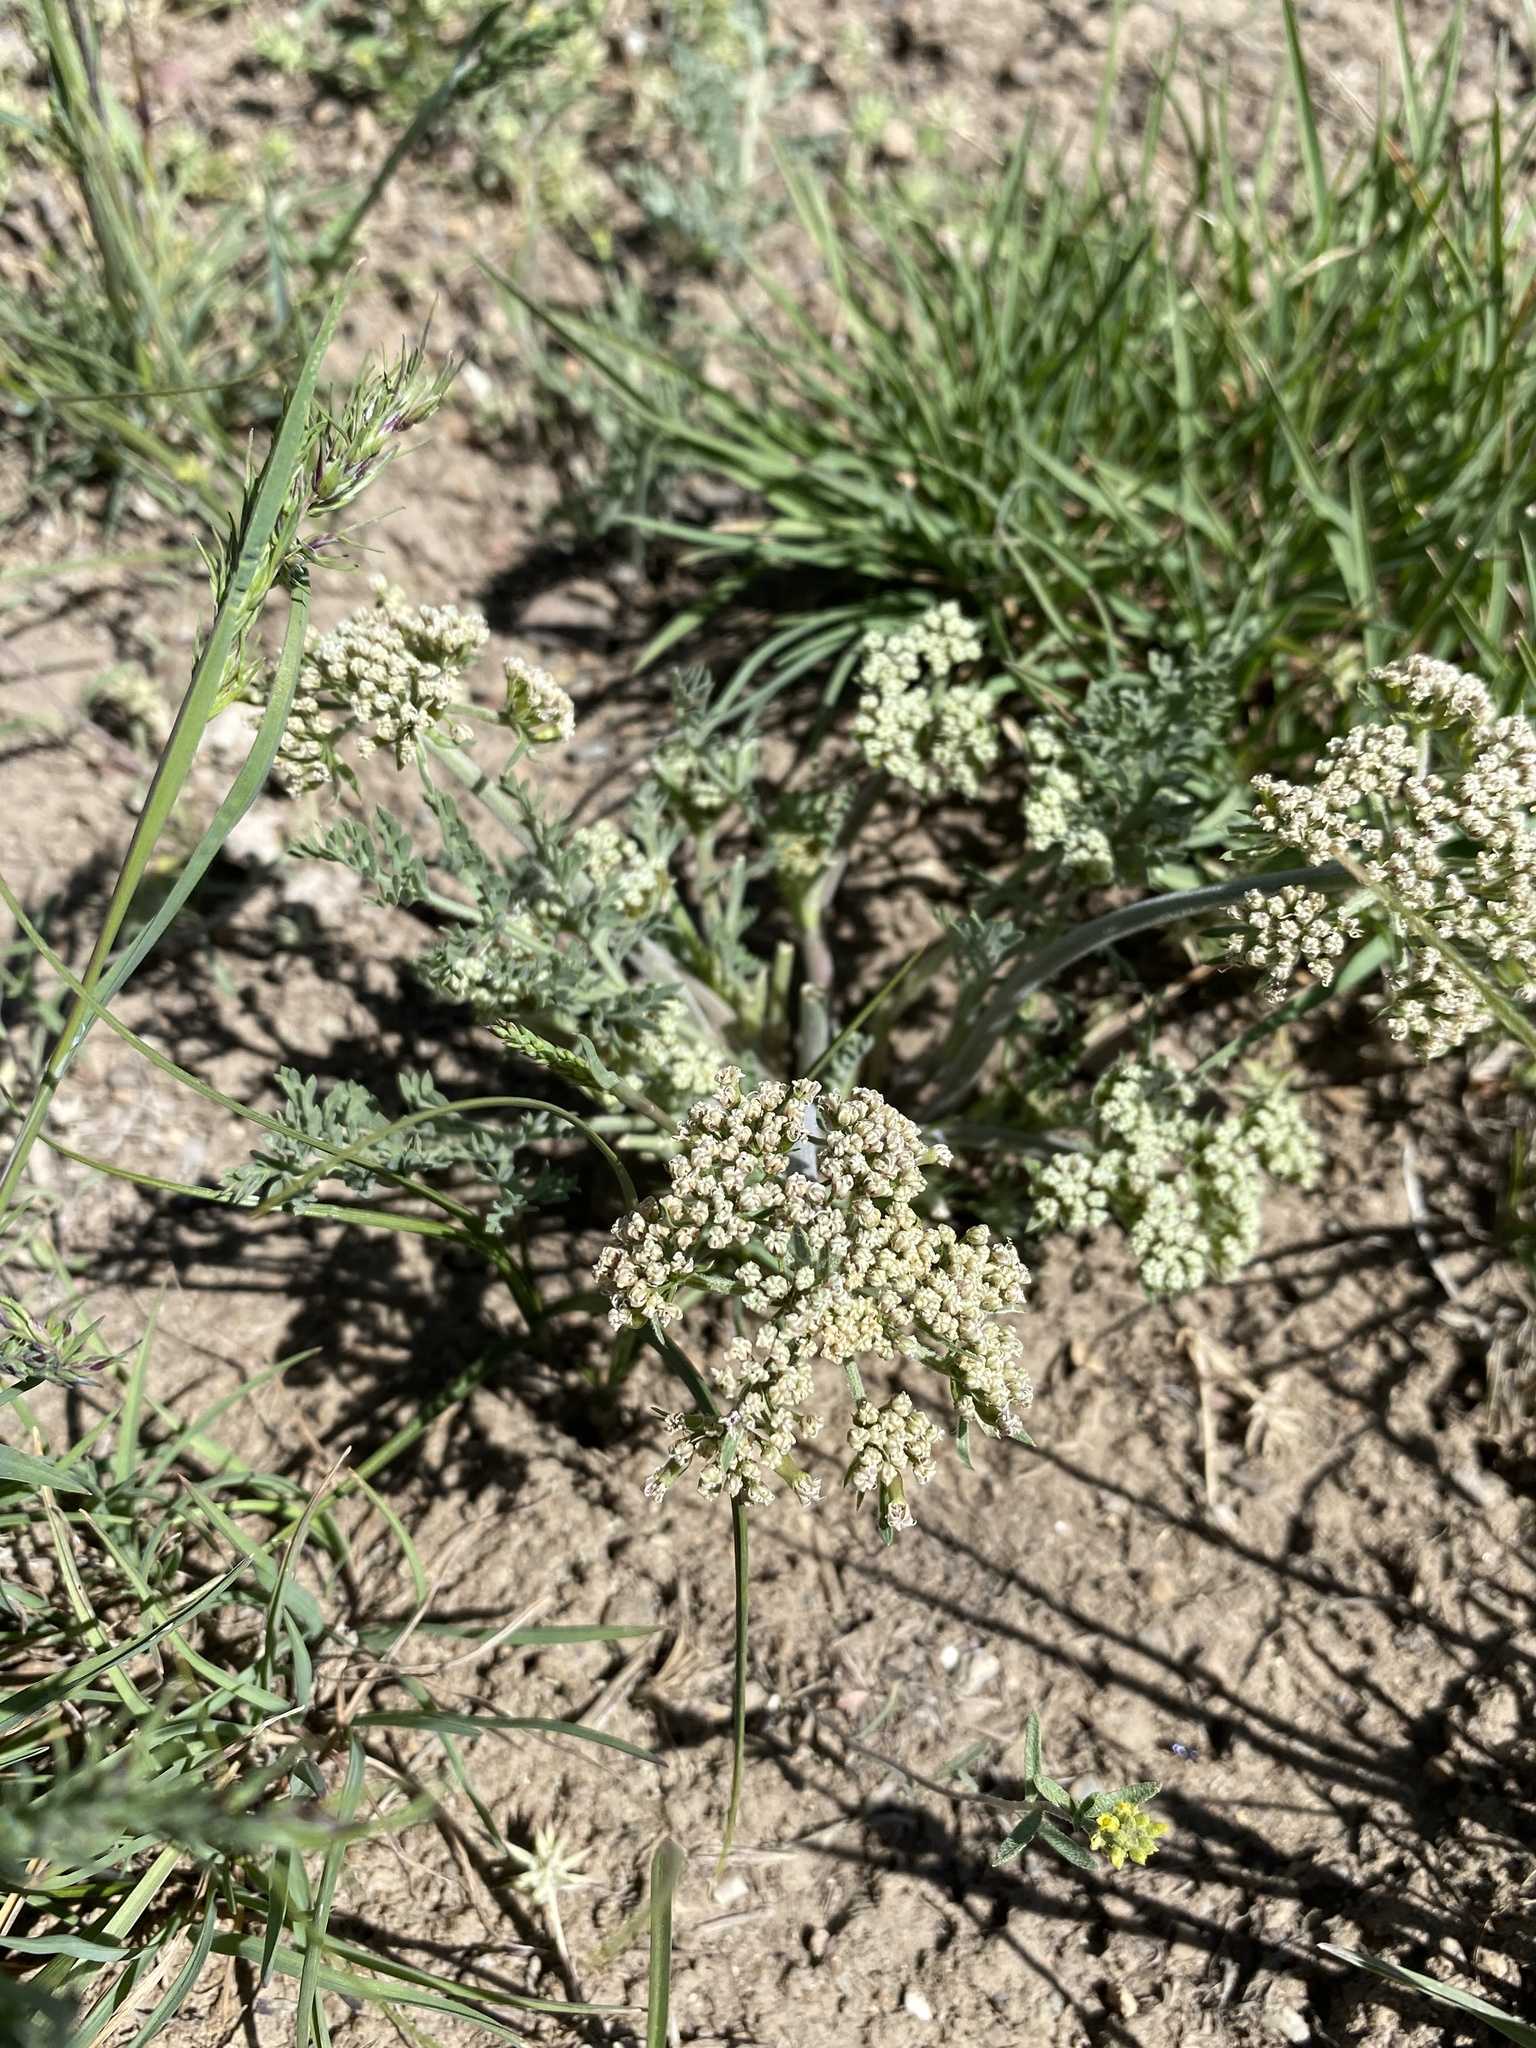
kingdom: Plantae
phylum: Tracheophyta
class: Magnoliopsida
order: Apiales
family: Apiaceae
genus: Lomatium
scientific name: Lomatium macrocarpum
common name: Big-seed biscuitroot
